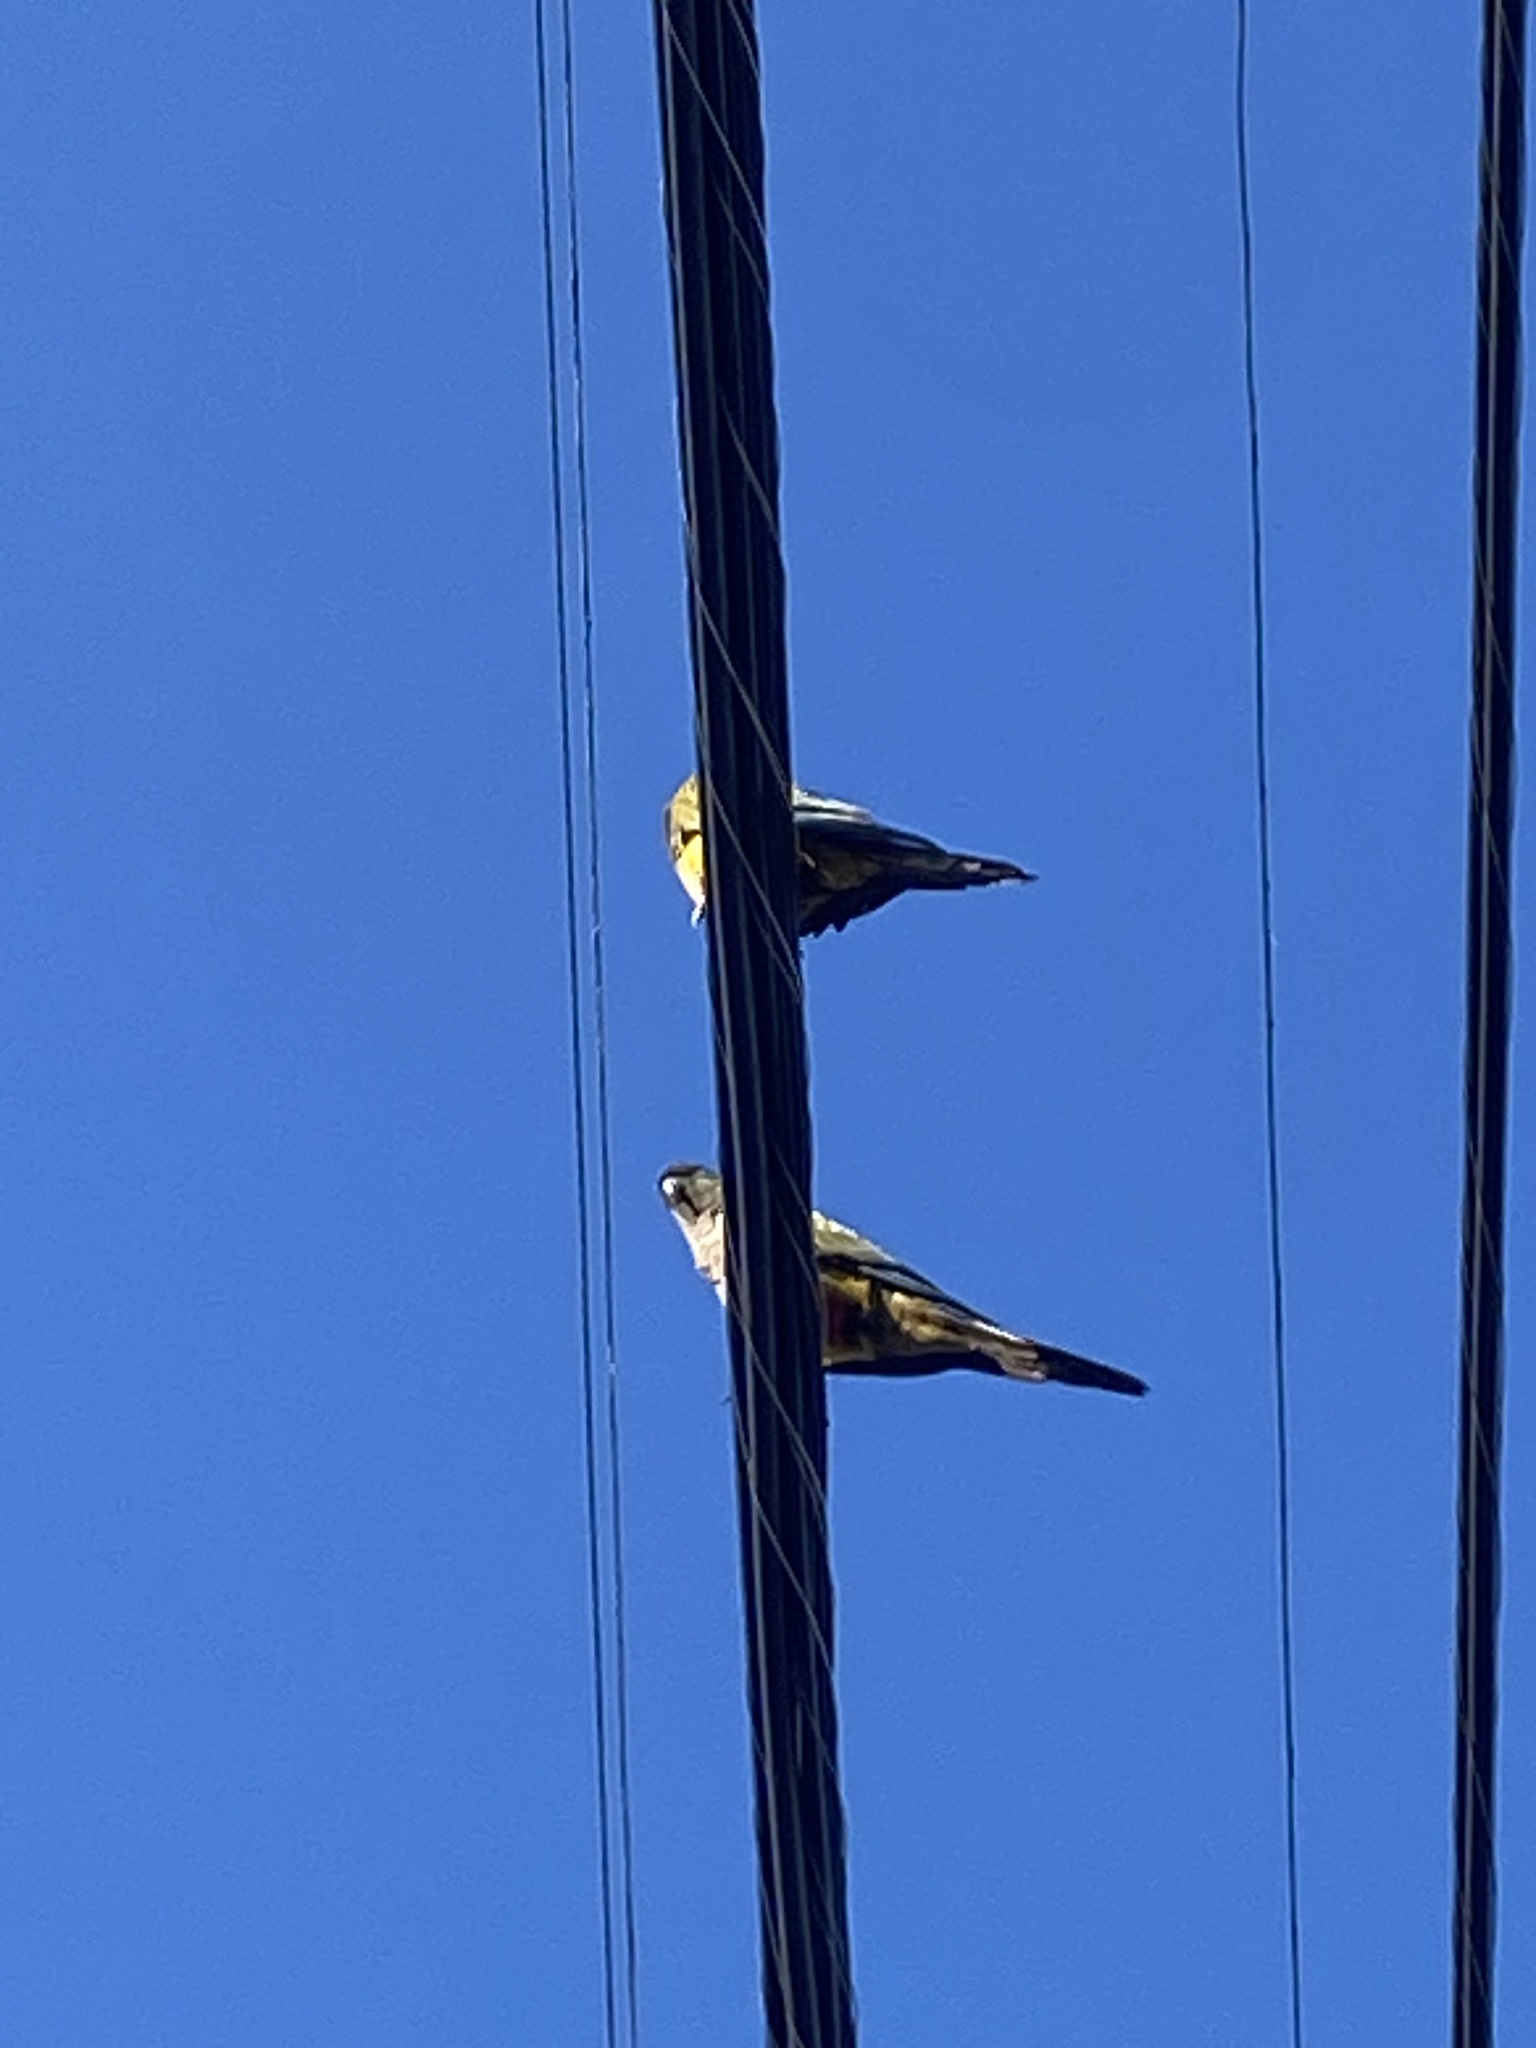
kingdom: Animalia
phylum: Chordata
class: Aves
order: Psittaciformes
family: Psittacidae
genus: Cyanoliseus
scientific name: Cyanoliseus patagonus
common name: Burrowing parrot
